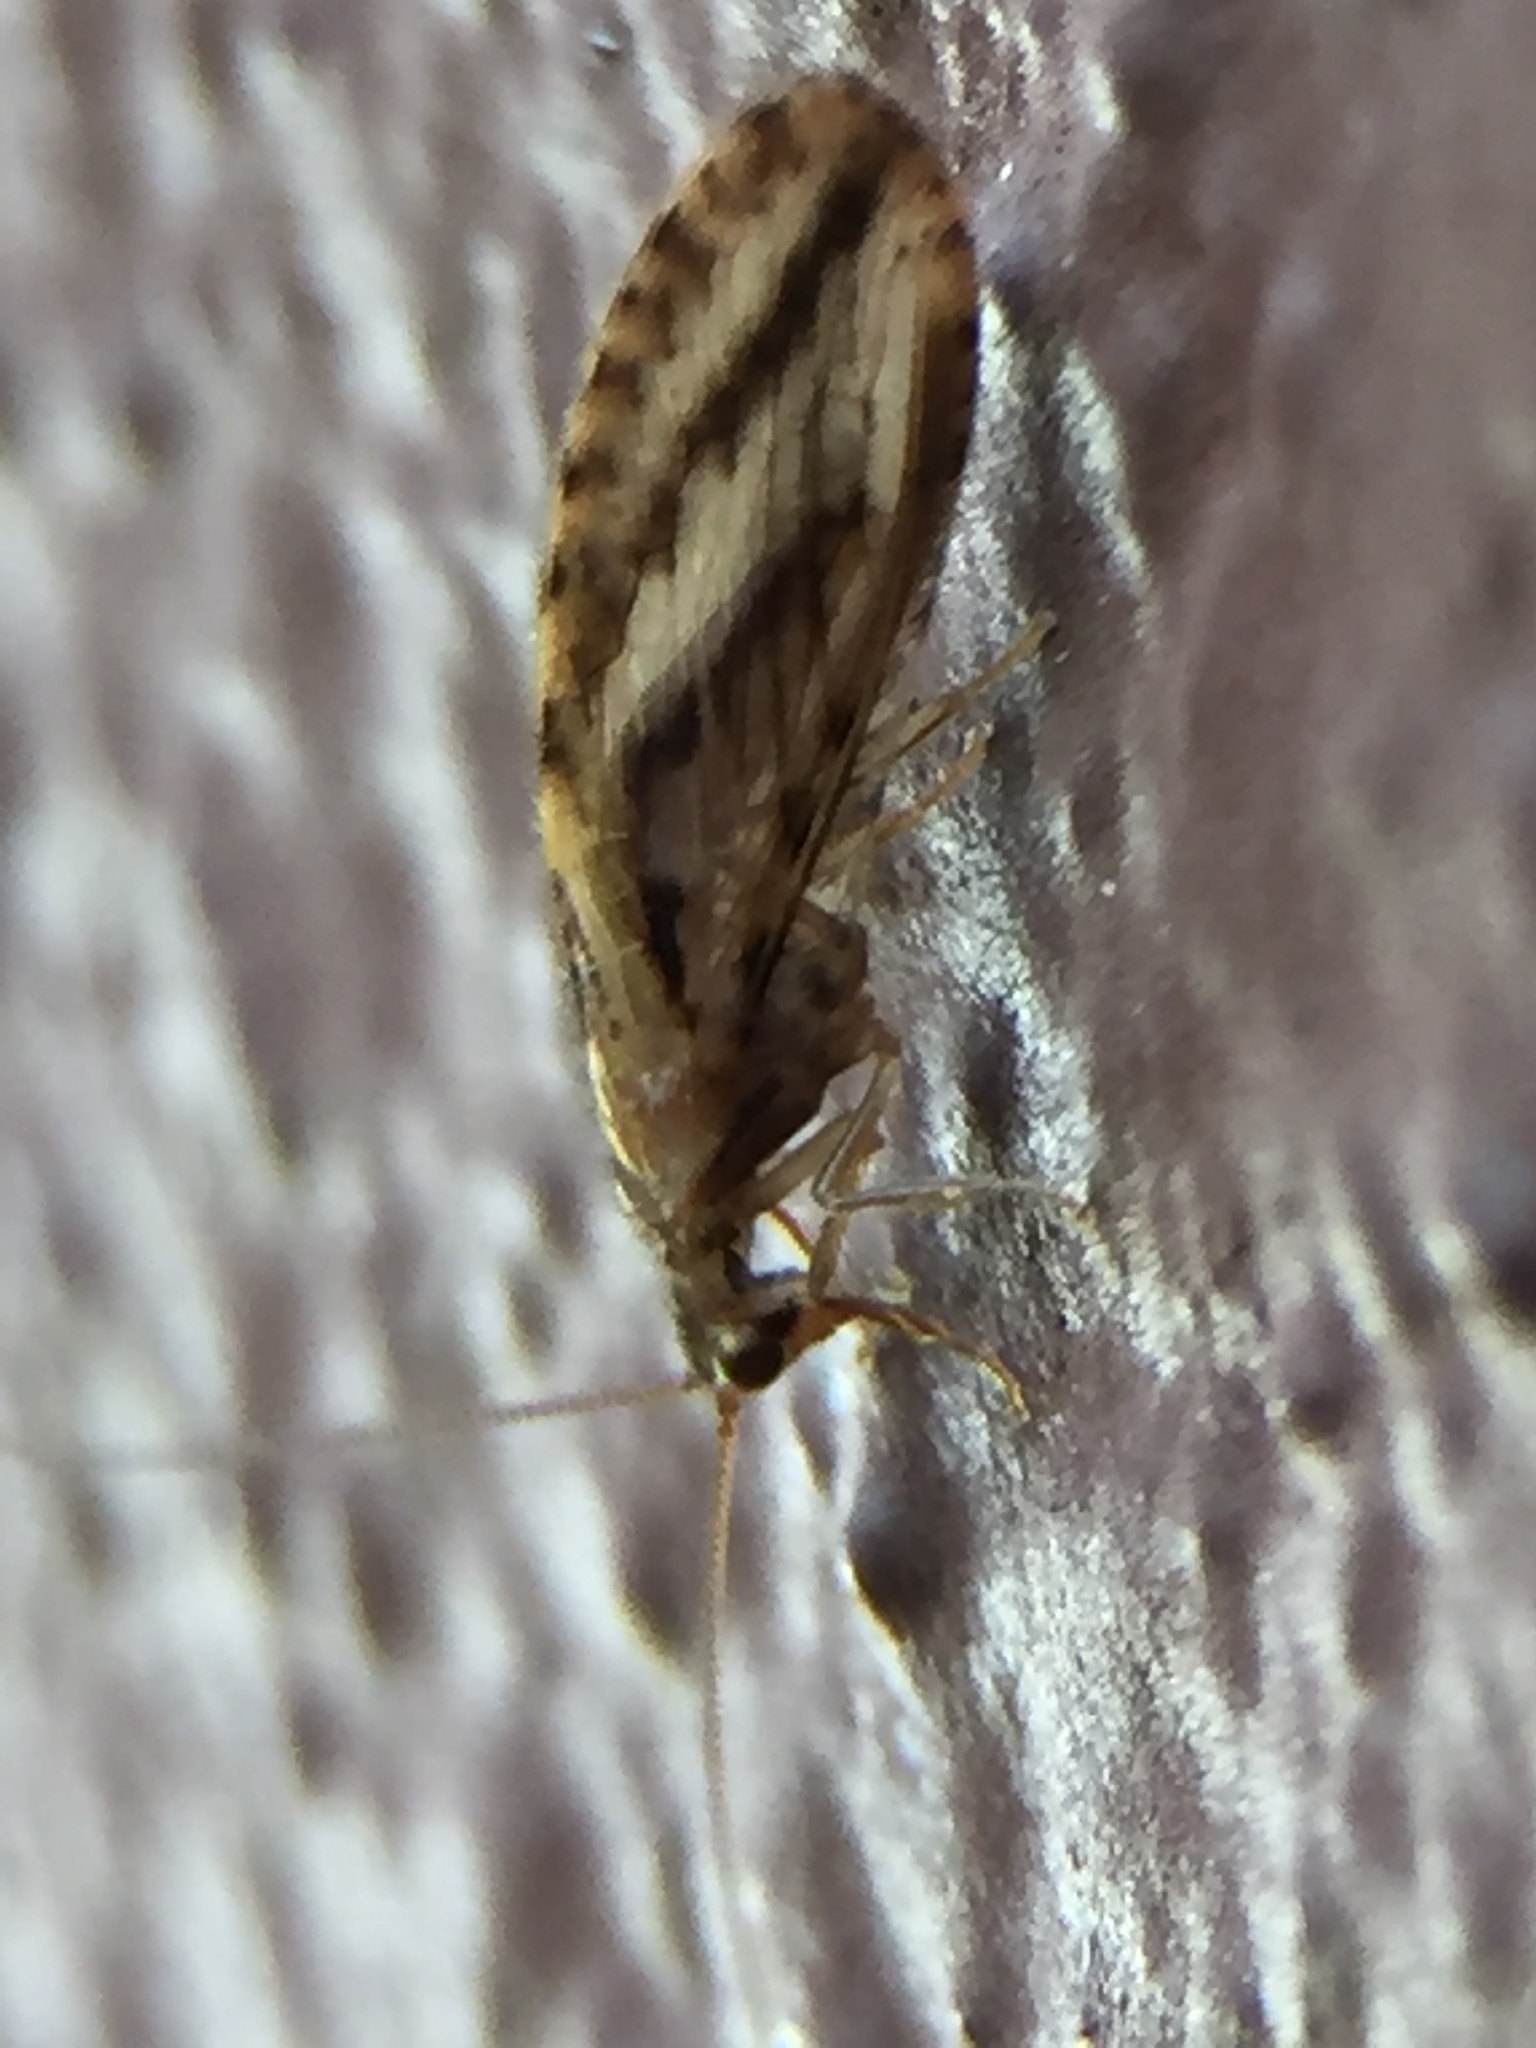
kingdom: Animalia
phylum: Arthropoda
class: Insecta
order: Neuroptera
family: Hemerobiidae
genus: Micromus
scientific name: Micromus bifasciatus
